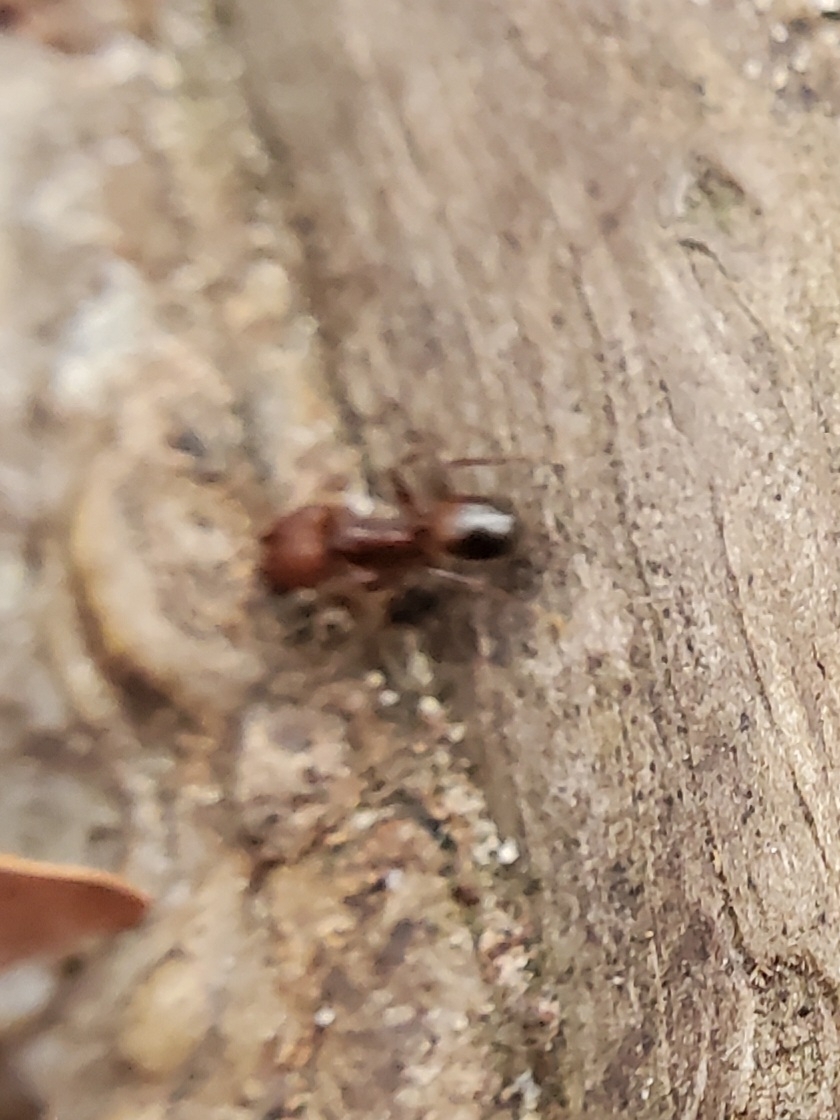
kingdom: Animalia
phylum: Arthropoda
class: Insecta
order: Hymenoptera
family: Formicidae
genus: Pheidole
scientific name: Pheidole obscurithorax
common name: Obscure big-headed ant
